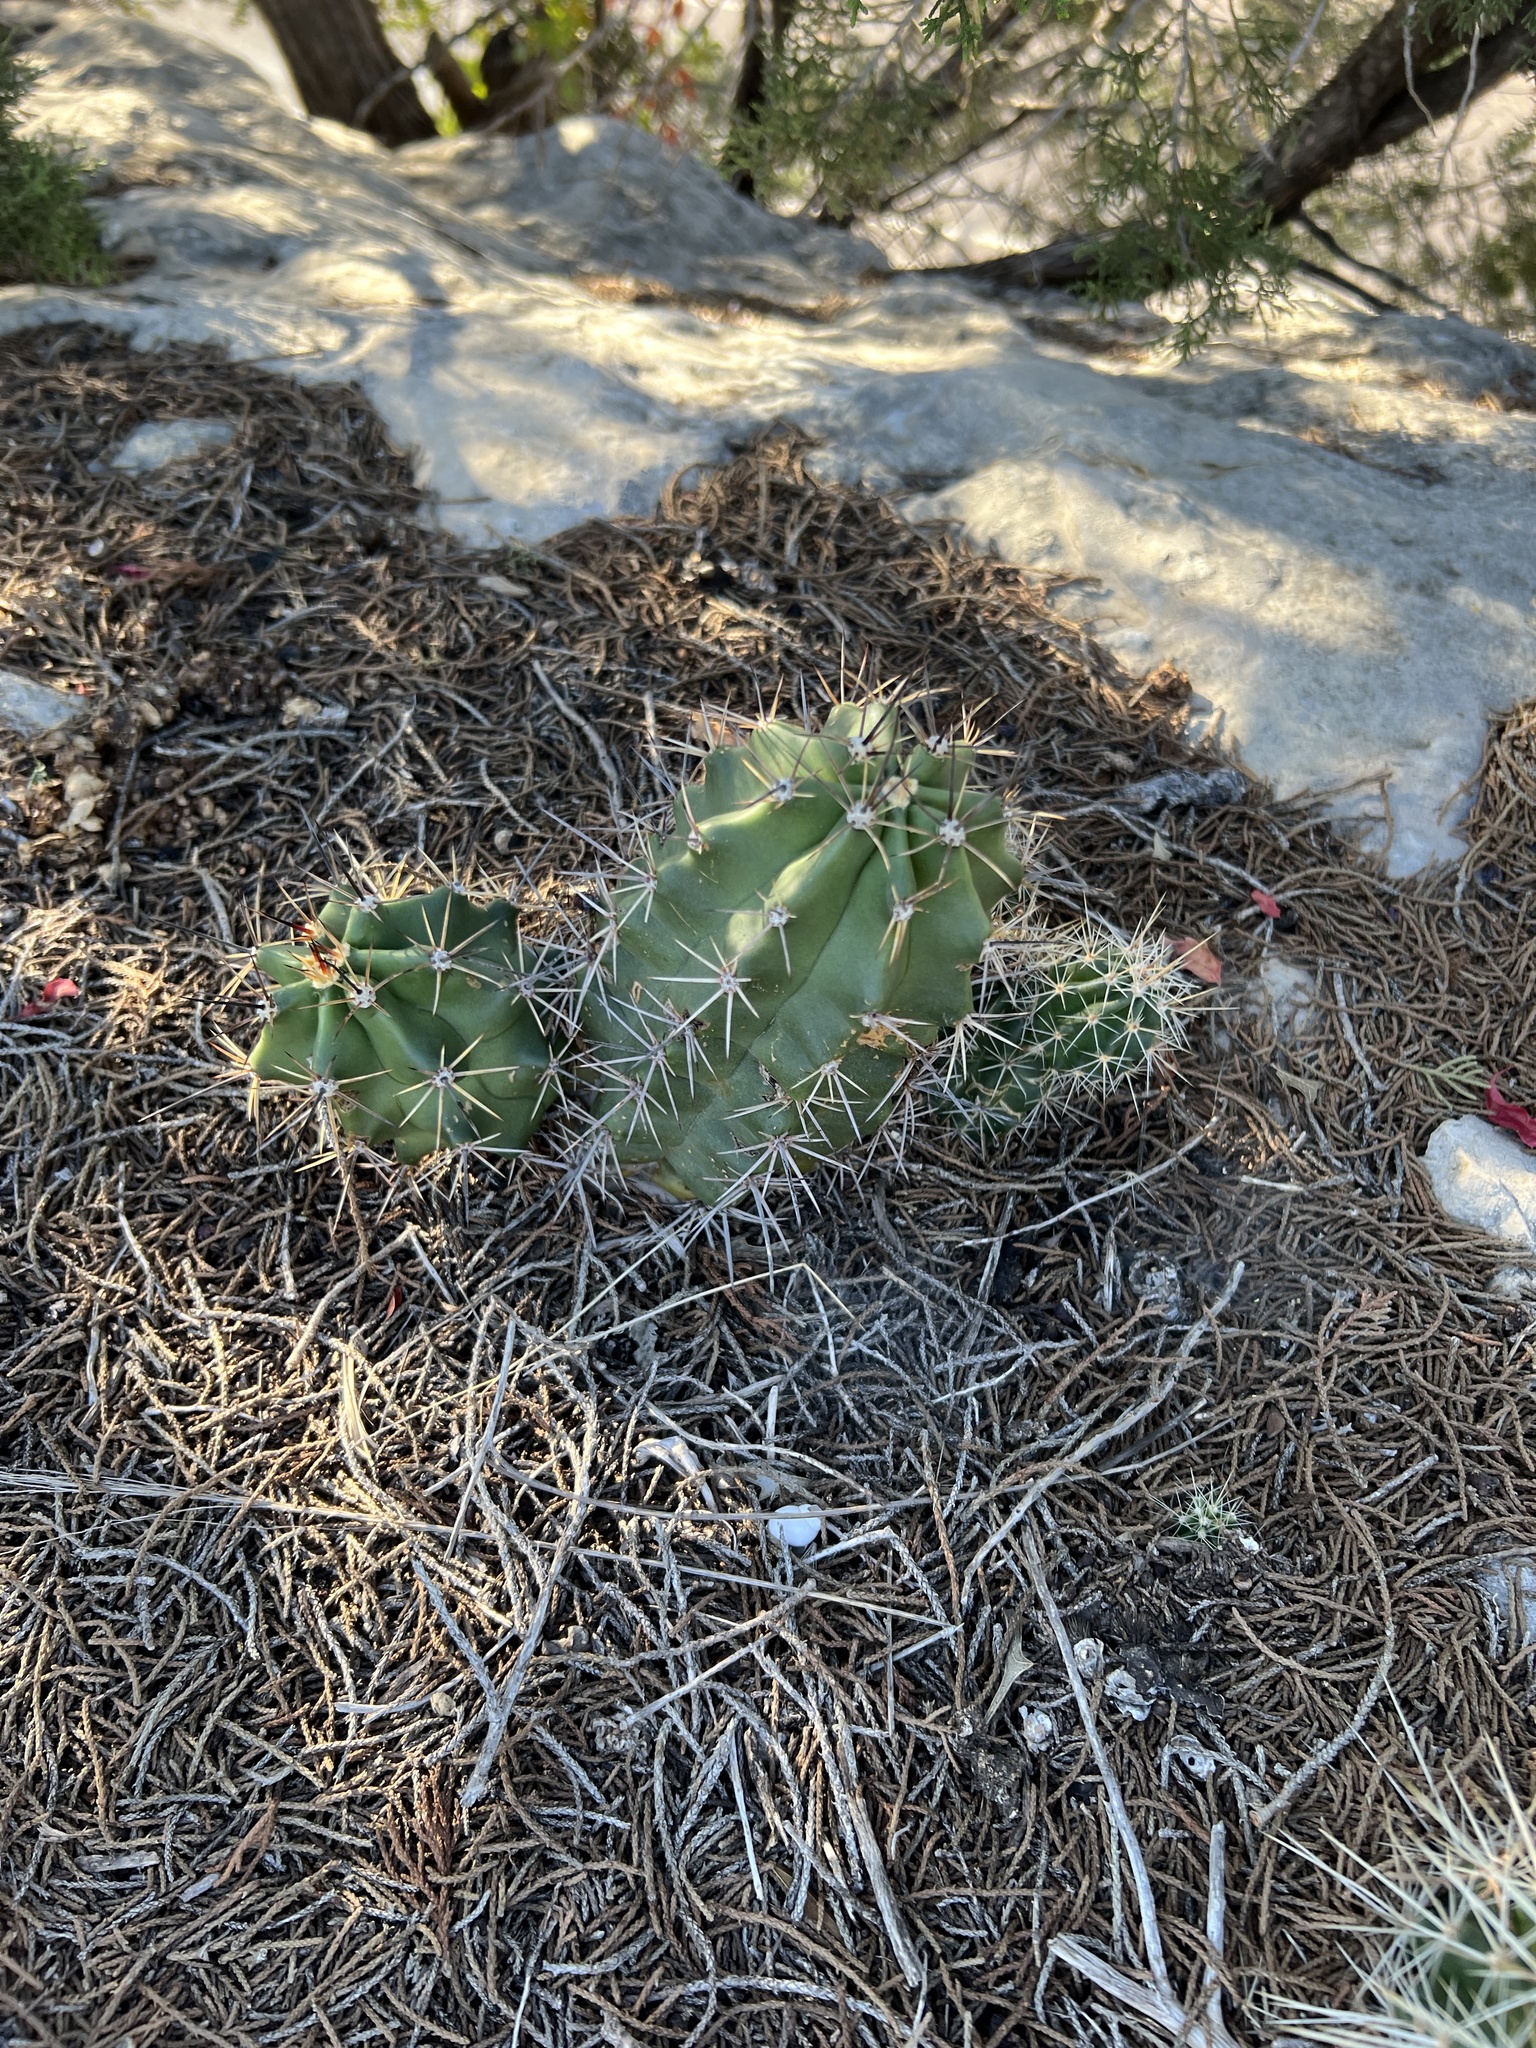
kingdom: Plantae
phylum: Tracheophyta
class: Magnoliopsida
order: Caryophyllales
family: Cactaceae
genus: Echinocereus
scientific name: Echinocereus coccineus
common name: Scarlet hedgehog cactus
